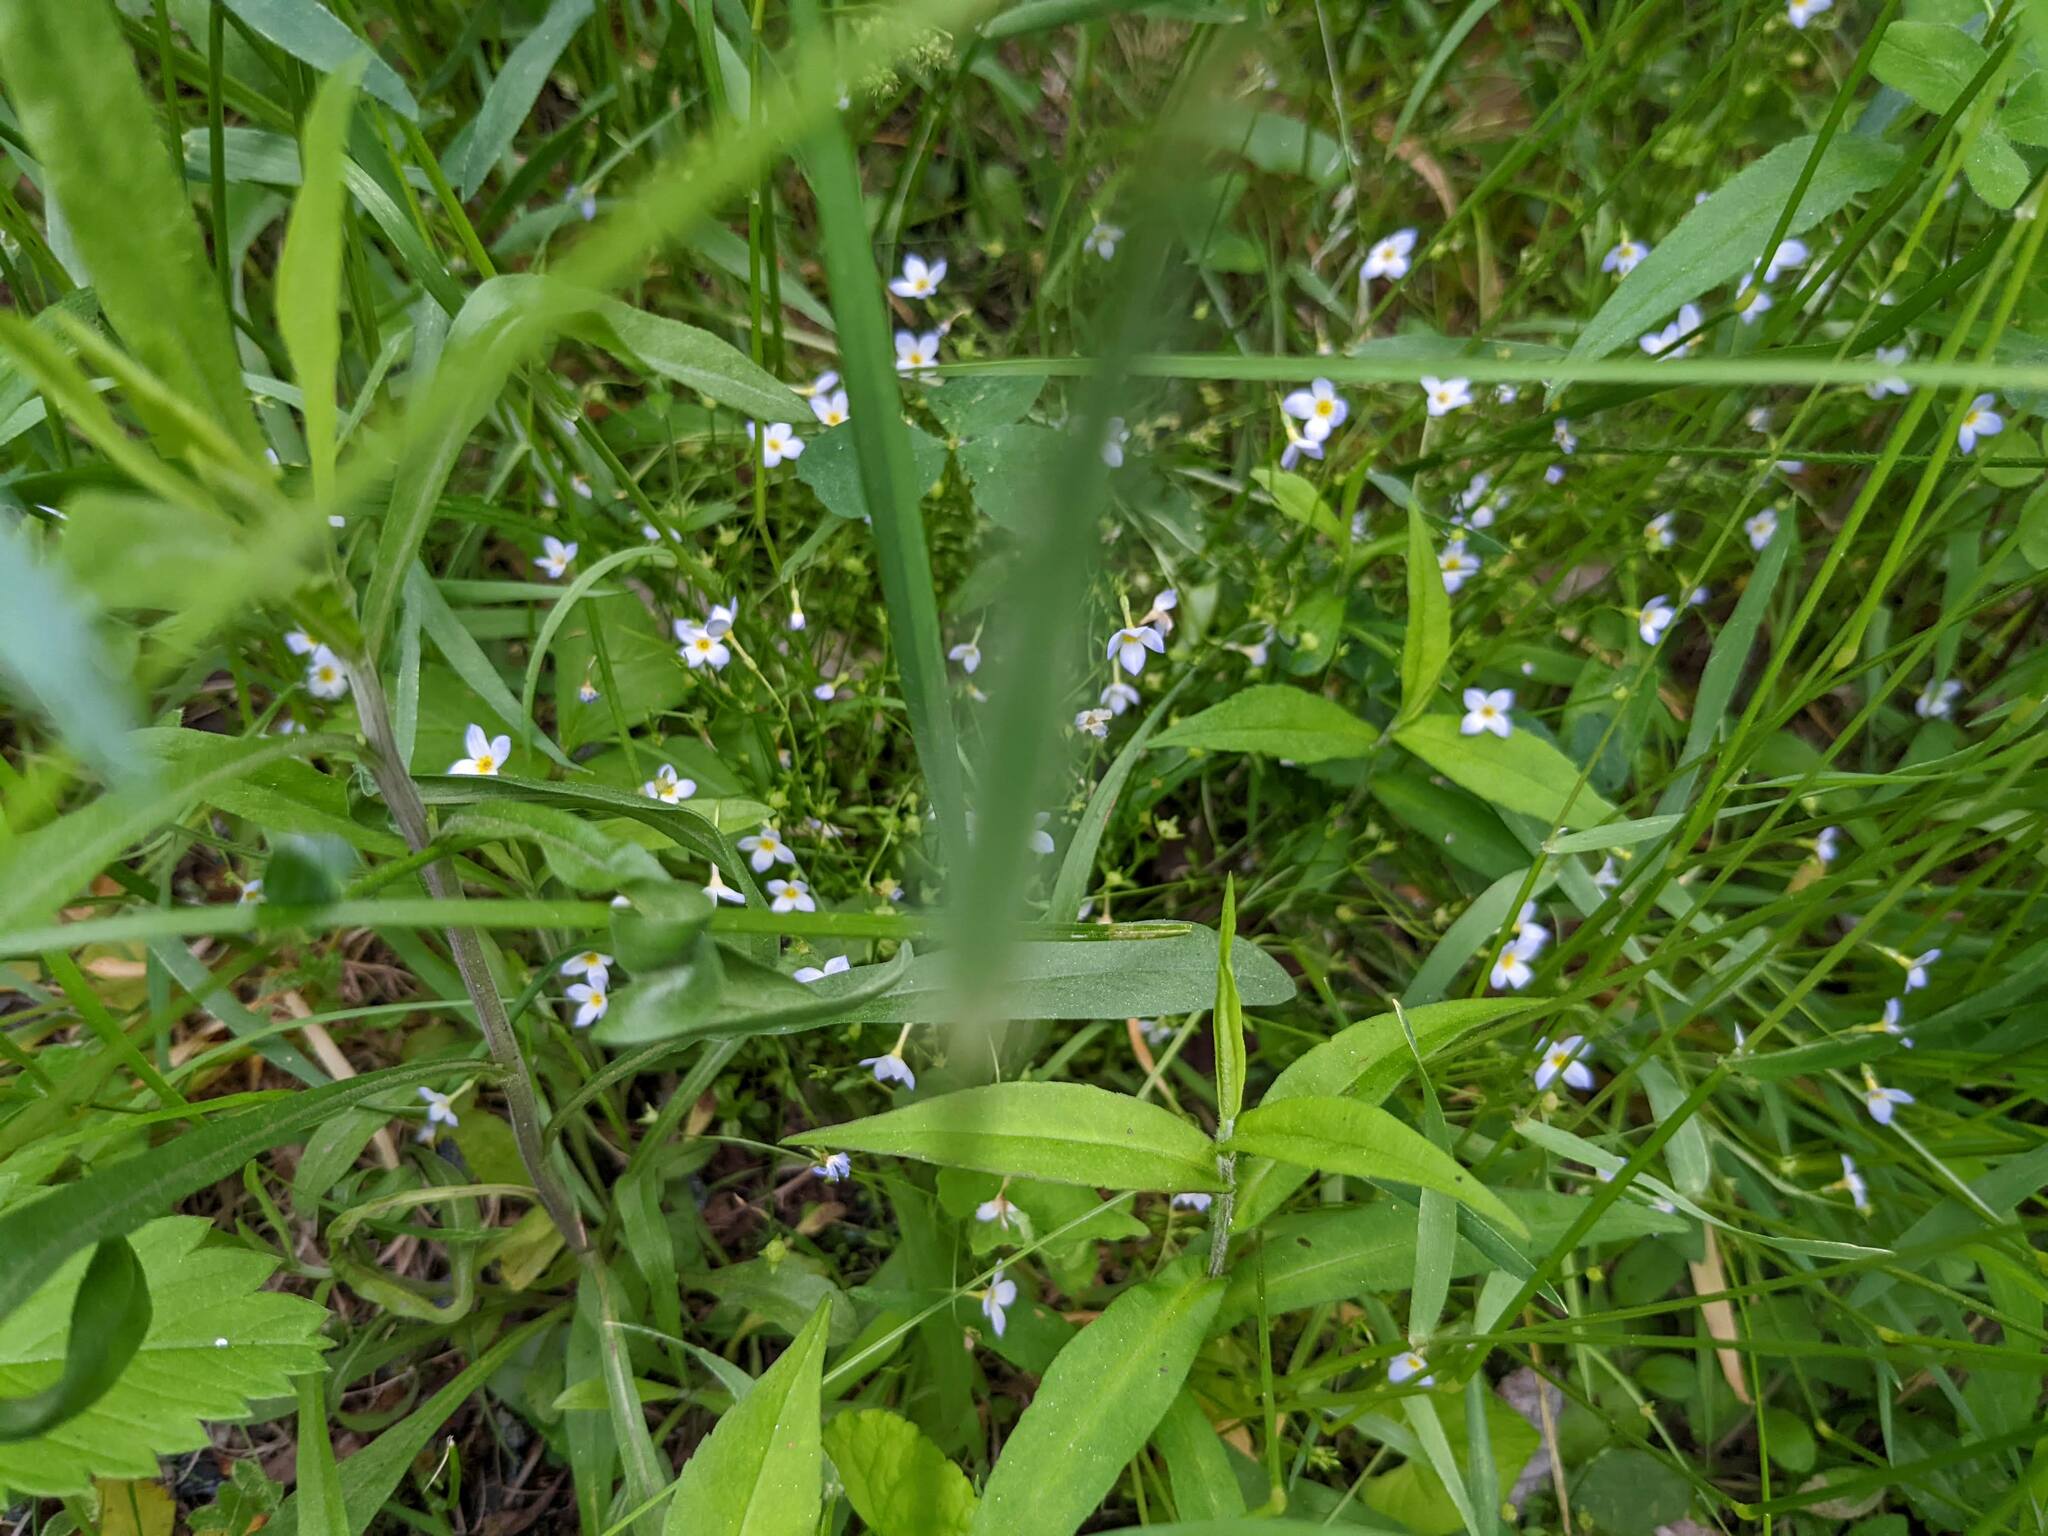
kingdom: Plantae
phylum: Tracheophyta
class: Magnoliopsida
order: Gentianales
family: Rubiaceae
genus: Houstonia
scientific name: Houstonia caerulea
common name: Bluets
